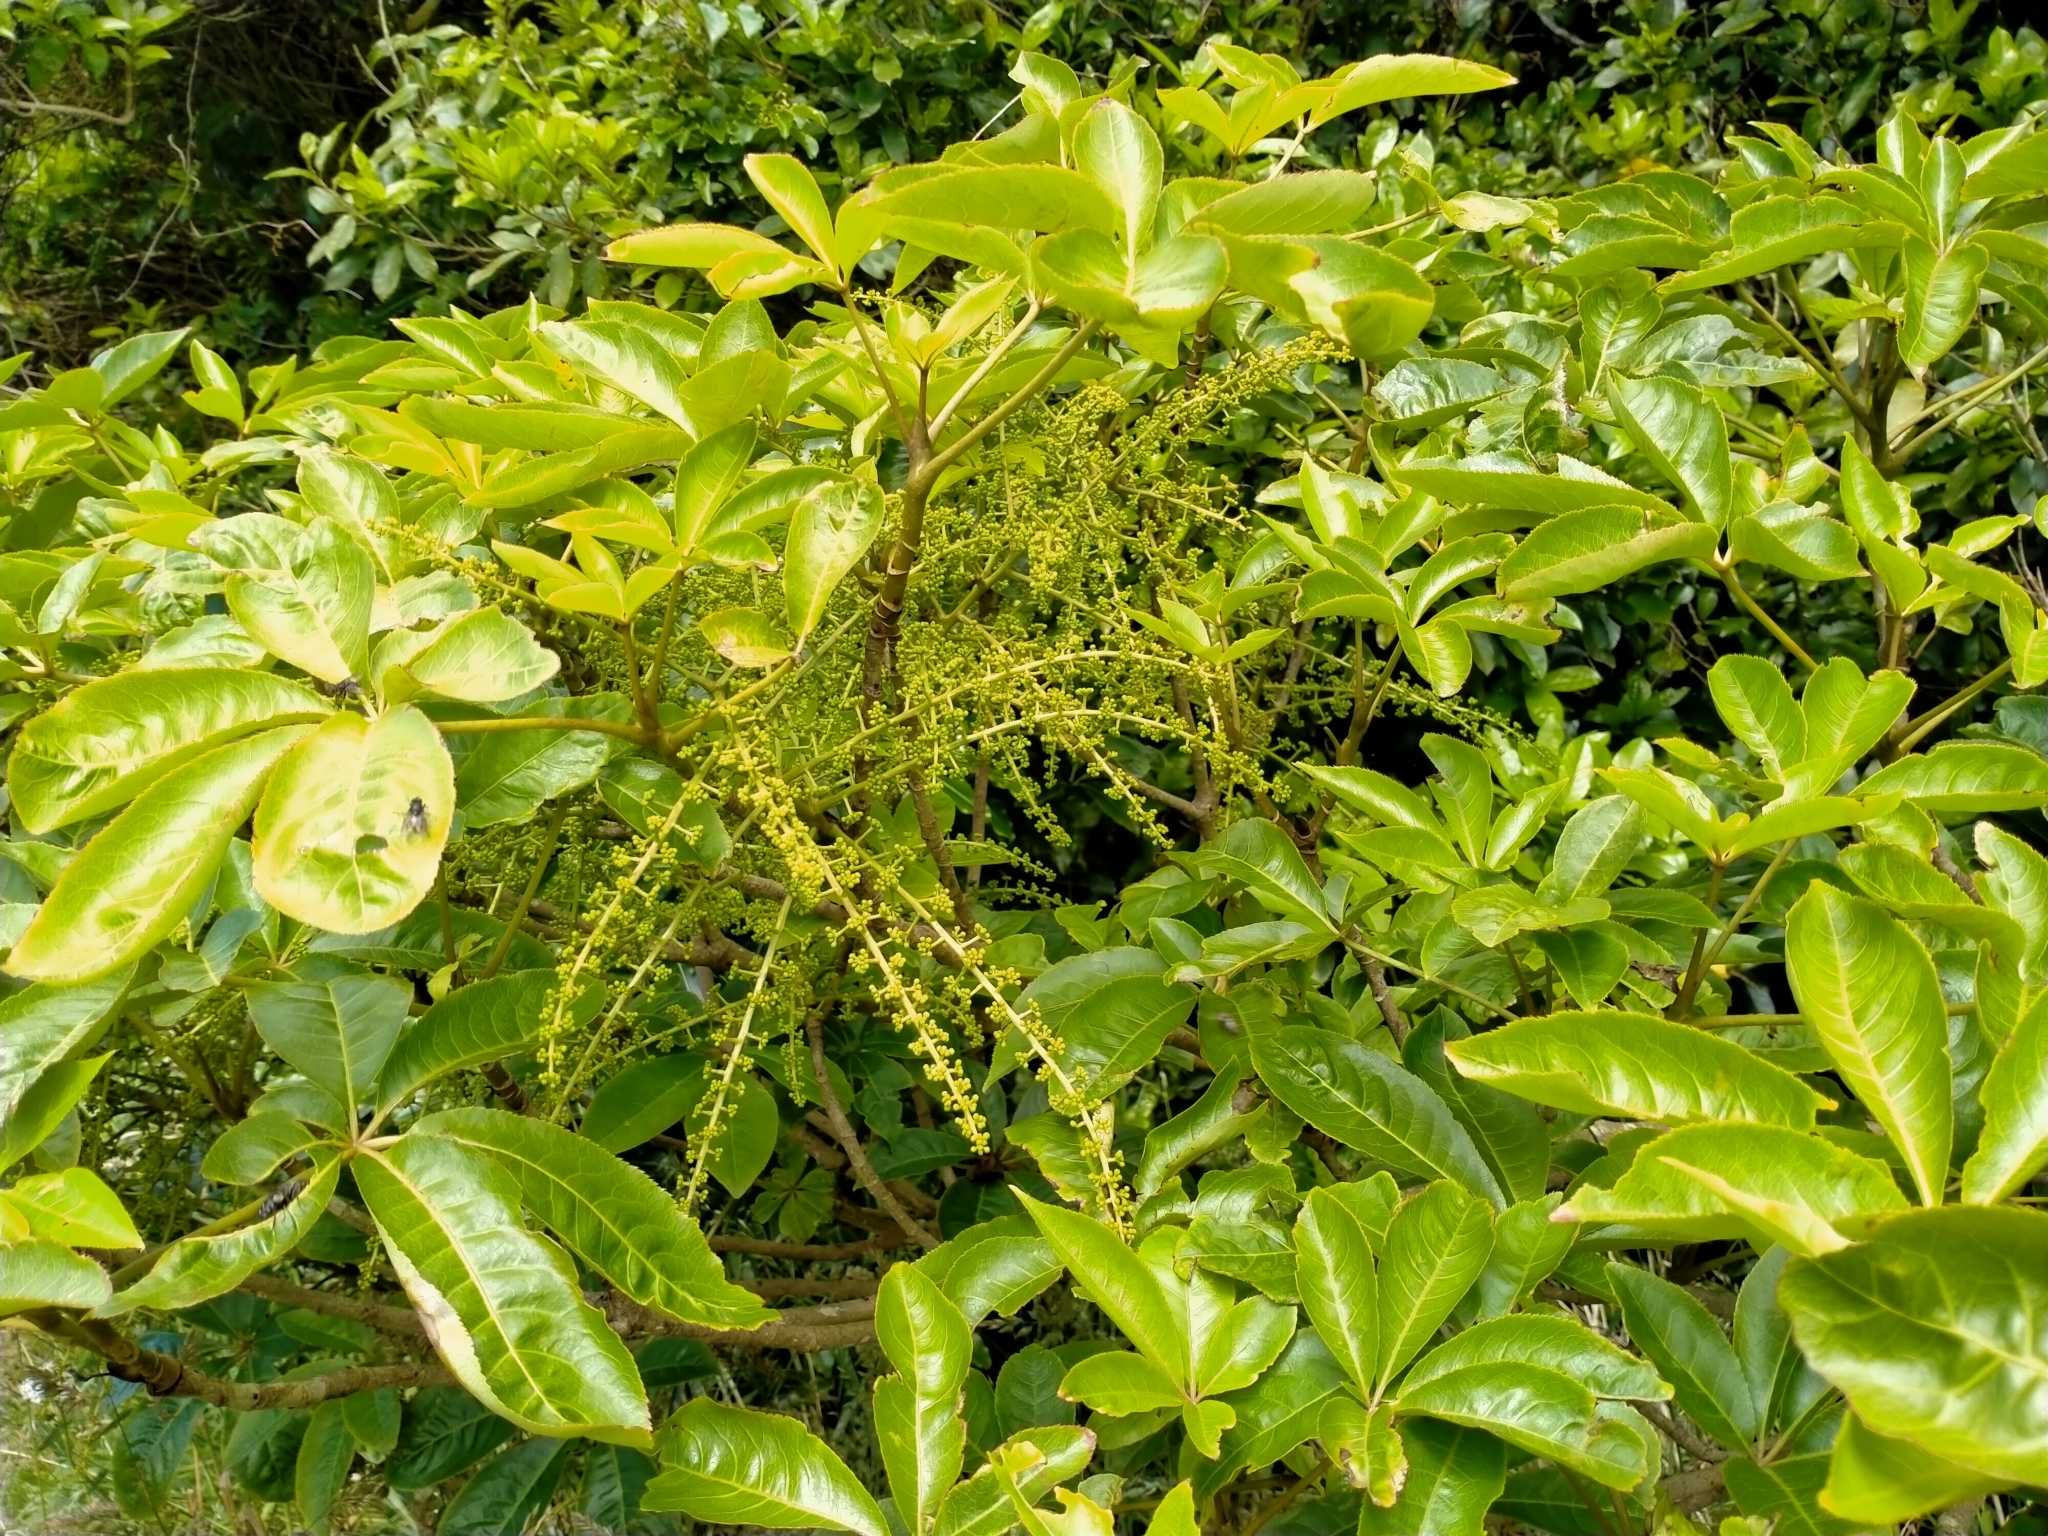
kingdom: Plantae
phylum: Tracheophyta
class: Magnoliopsida
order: Apiales
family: Araliaceae
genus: Schefflera
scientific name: Schefflera digitata
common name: Pate
